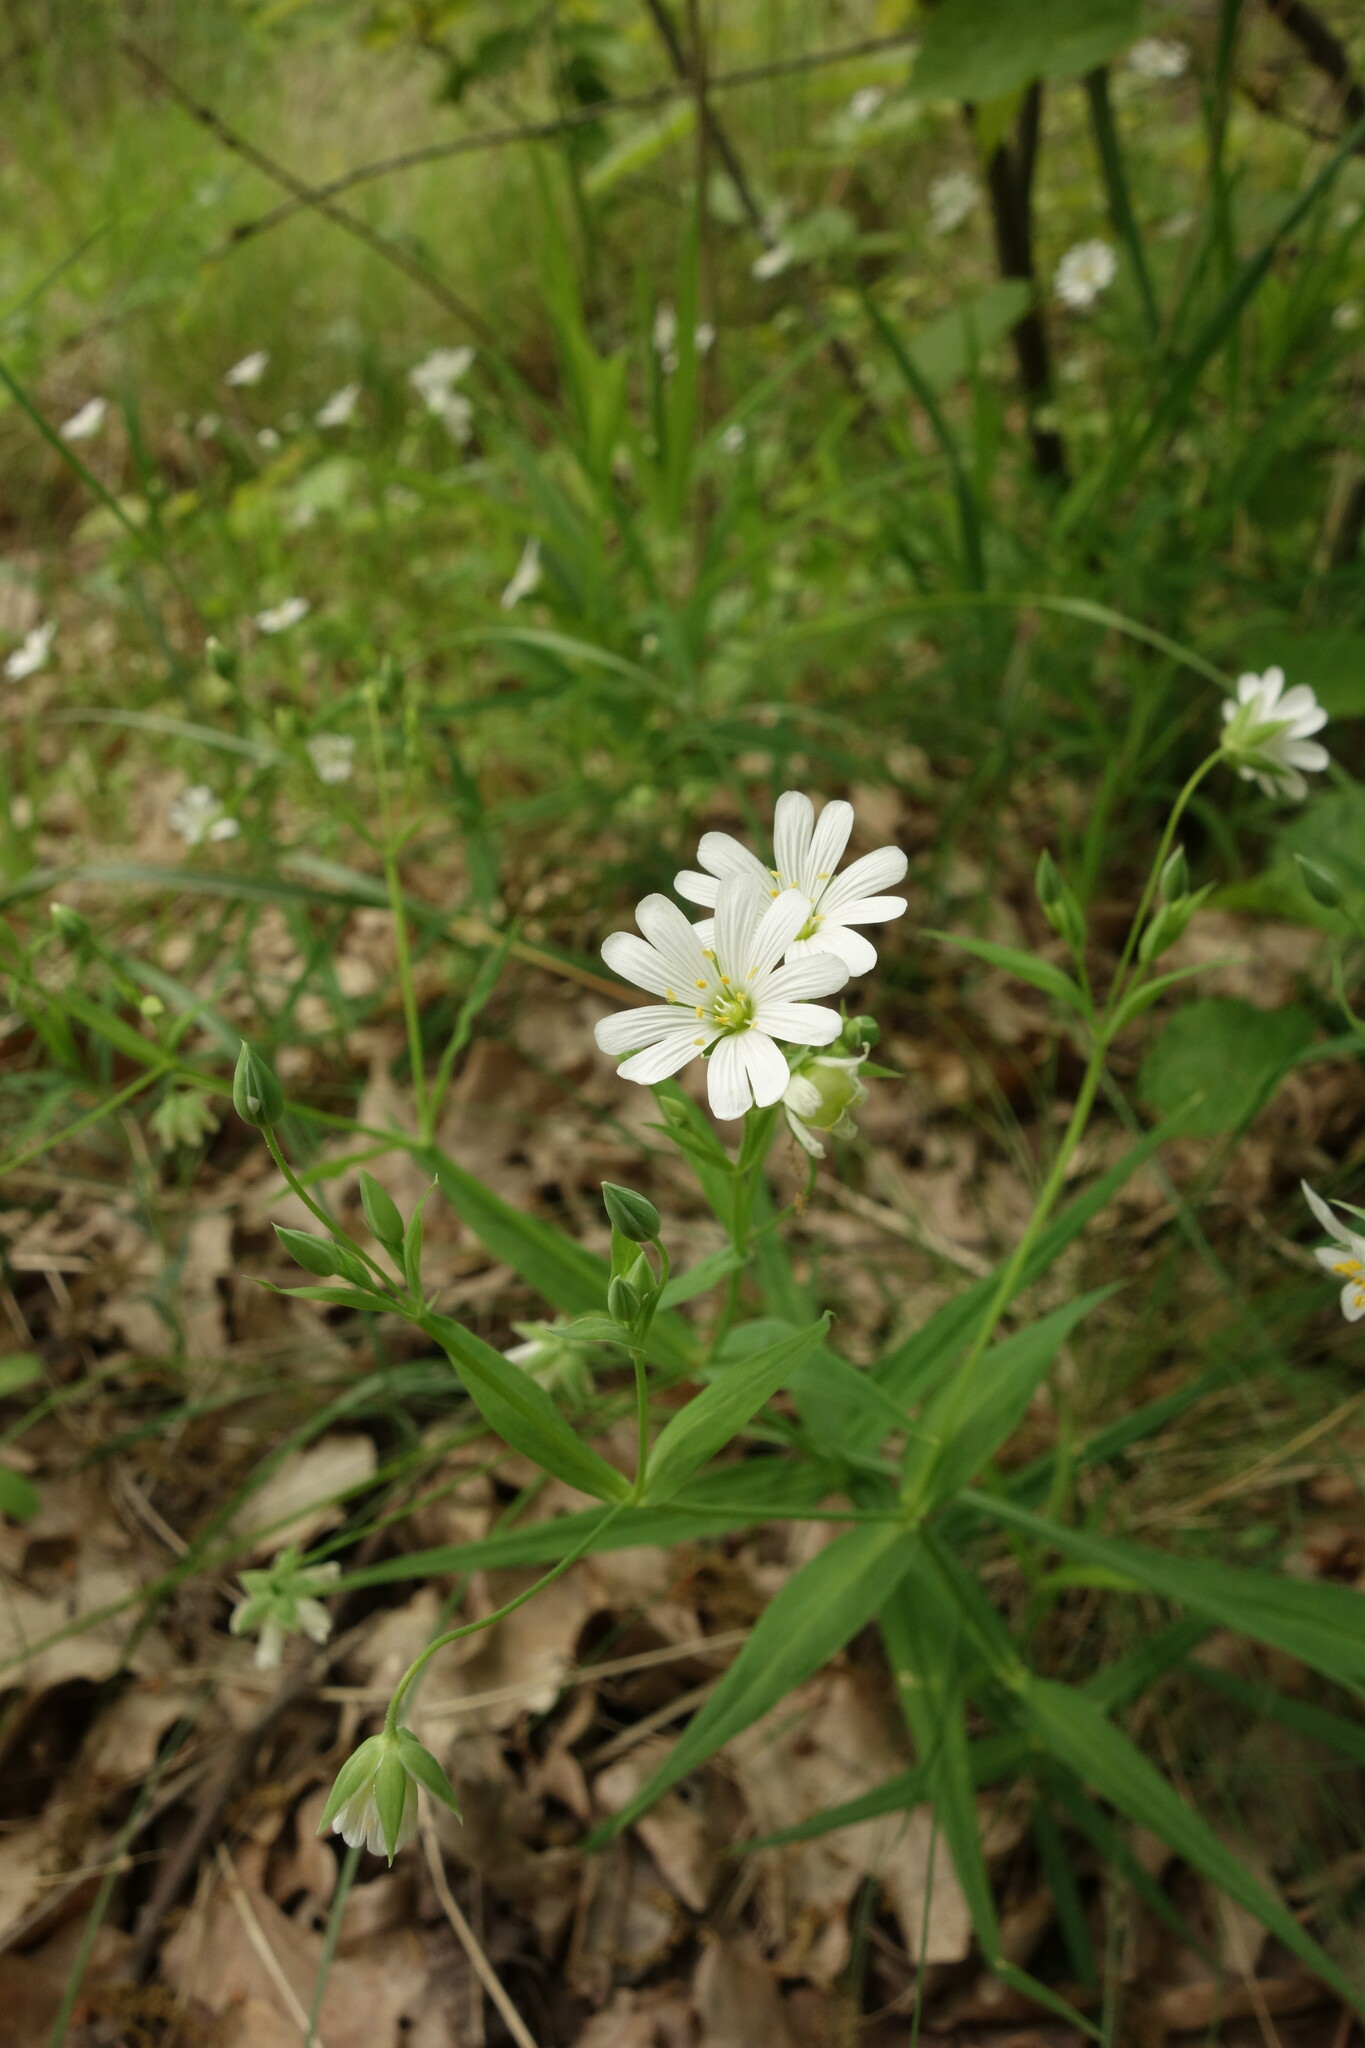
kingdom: Plantae
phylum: Tracheophyta
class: Magnoliopsida
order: Caryophyllales
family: Caryophyllaceae
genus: Rabelera
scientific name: Rabelera holostea
